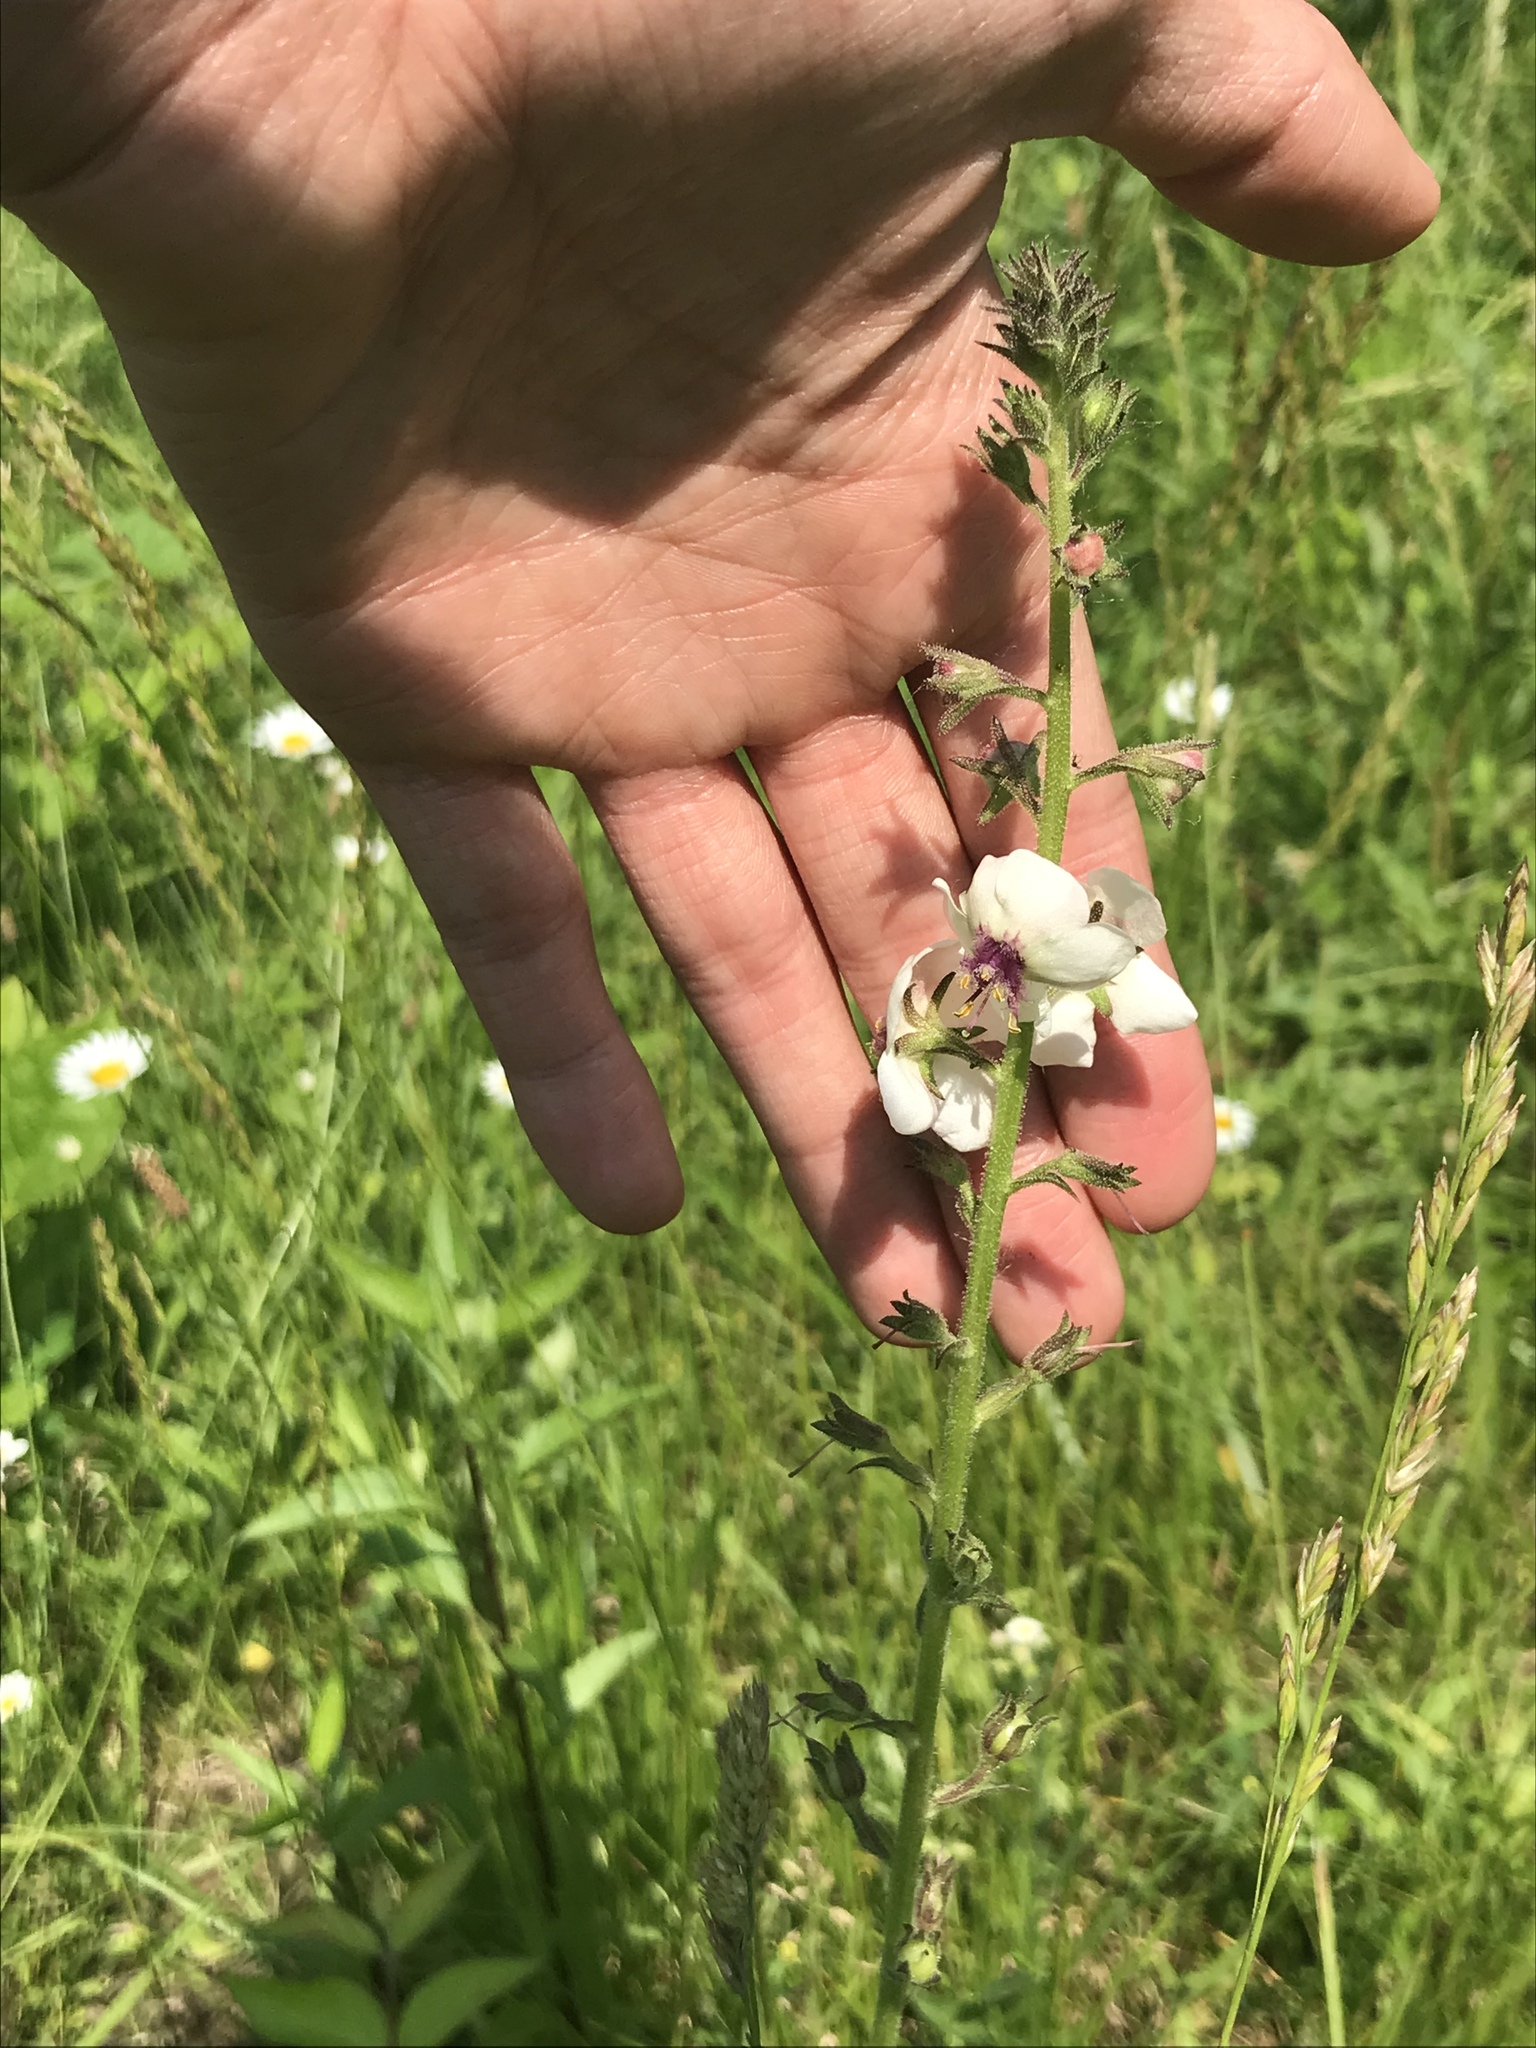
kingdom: Plantae
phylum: Tracheophyta
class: Magnoliopsida
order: Lamiales
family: Scrophulariaceae
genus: Verbascum
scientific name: Verbascum blattaria
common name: Moth mullein
